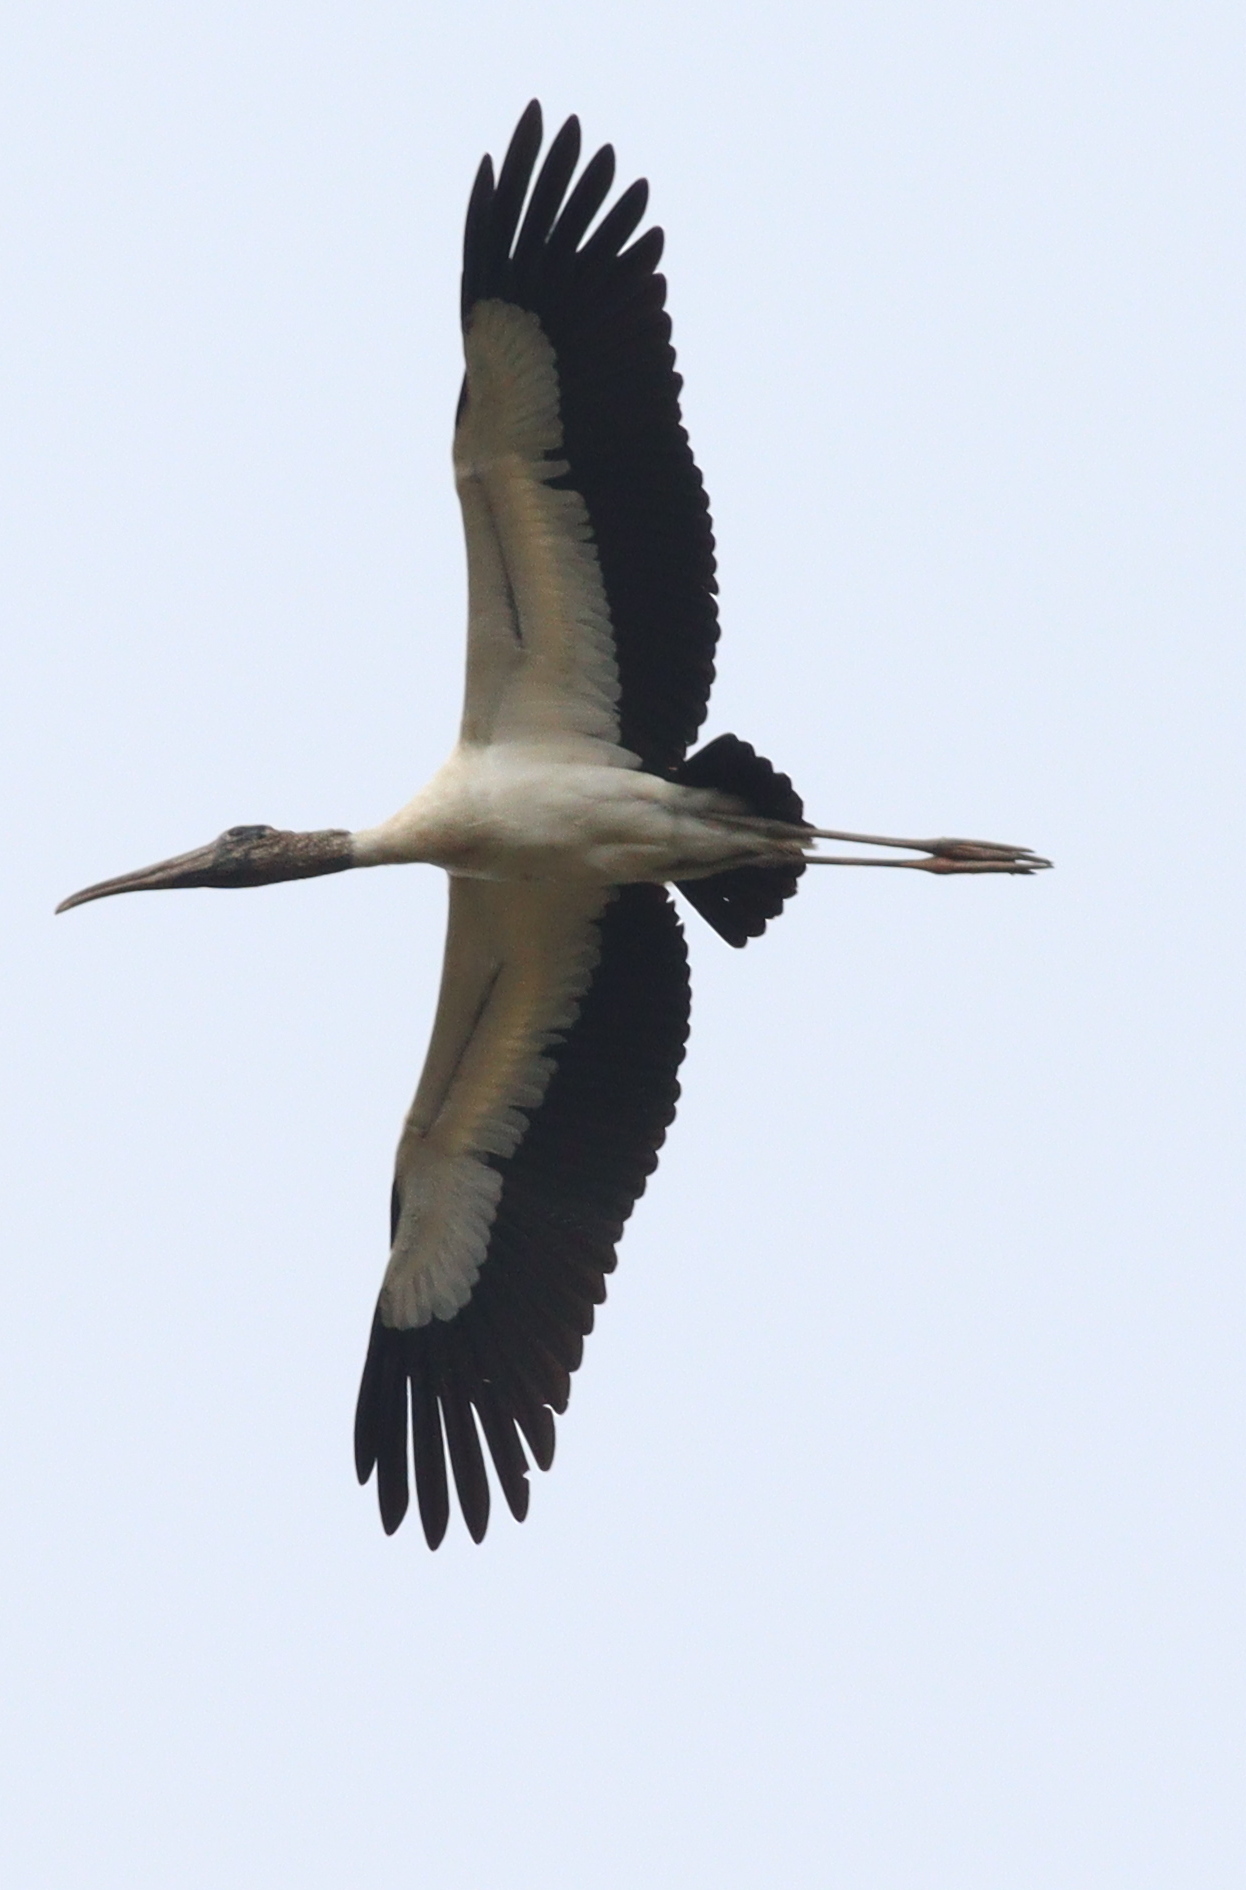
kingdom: Animalia
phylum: Chordata
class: Aves
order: Ciconiiformes
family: Ciconiidae
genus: Mycteria
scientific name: Mycteria americana
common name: Wood stork
